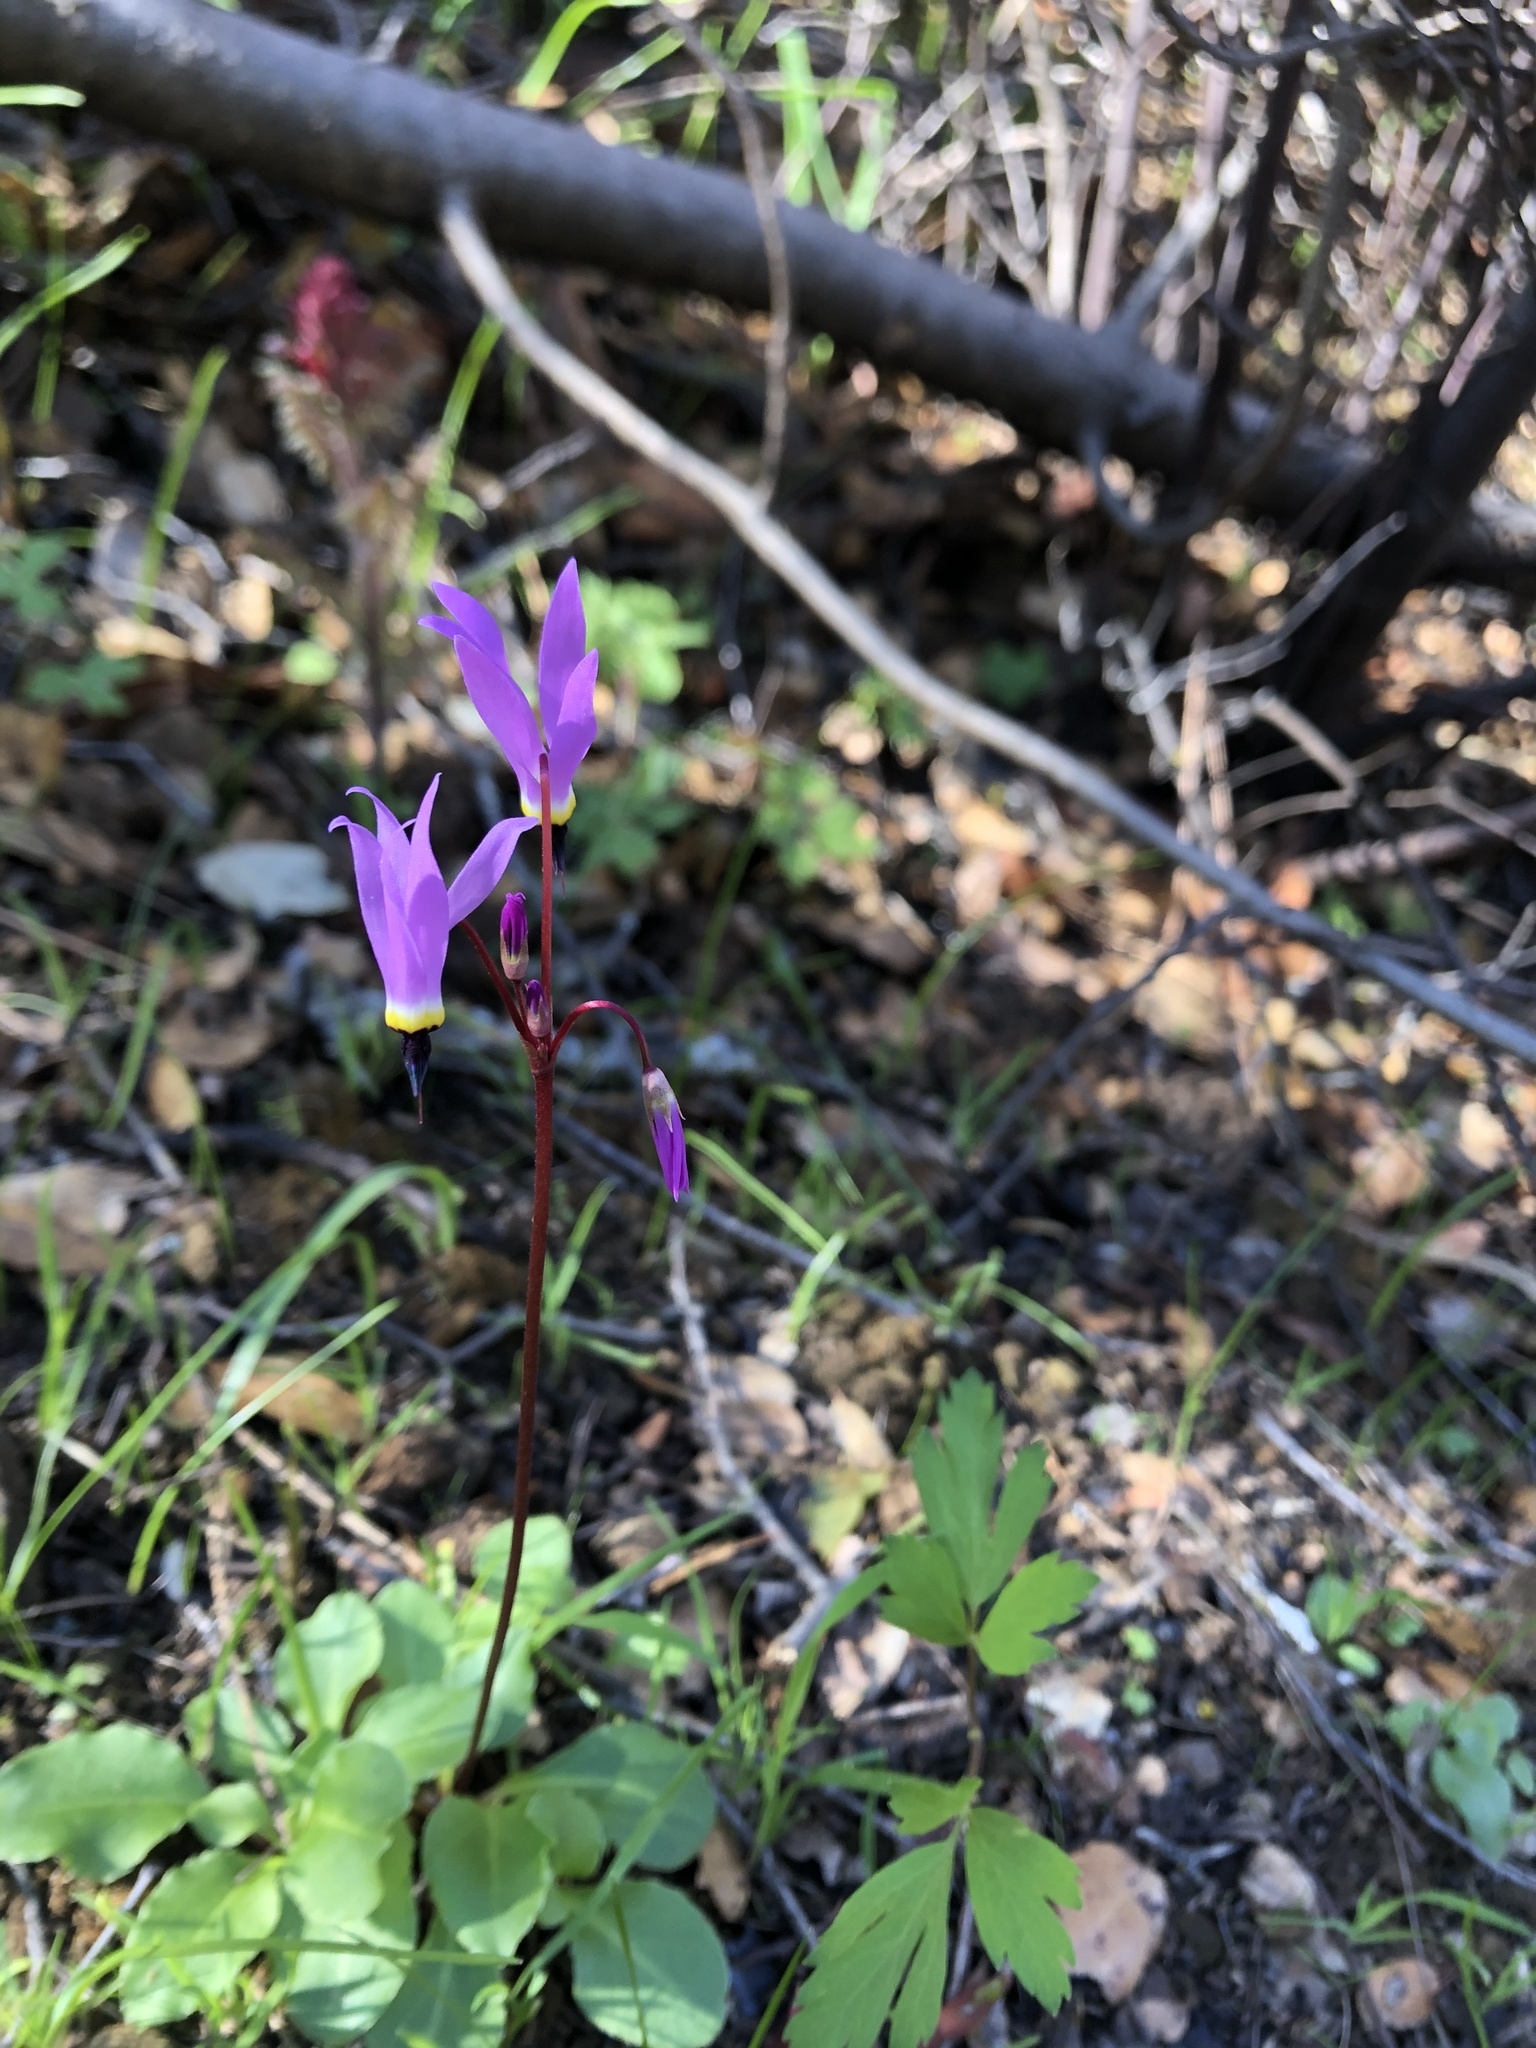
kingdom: Plantae
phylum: Tracheophyta
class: Magnoliopsida
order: Ericales
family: Primulaceae
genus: Dodecatheon
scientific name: Dodecatheon hendersonii
